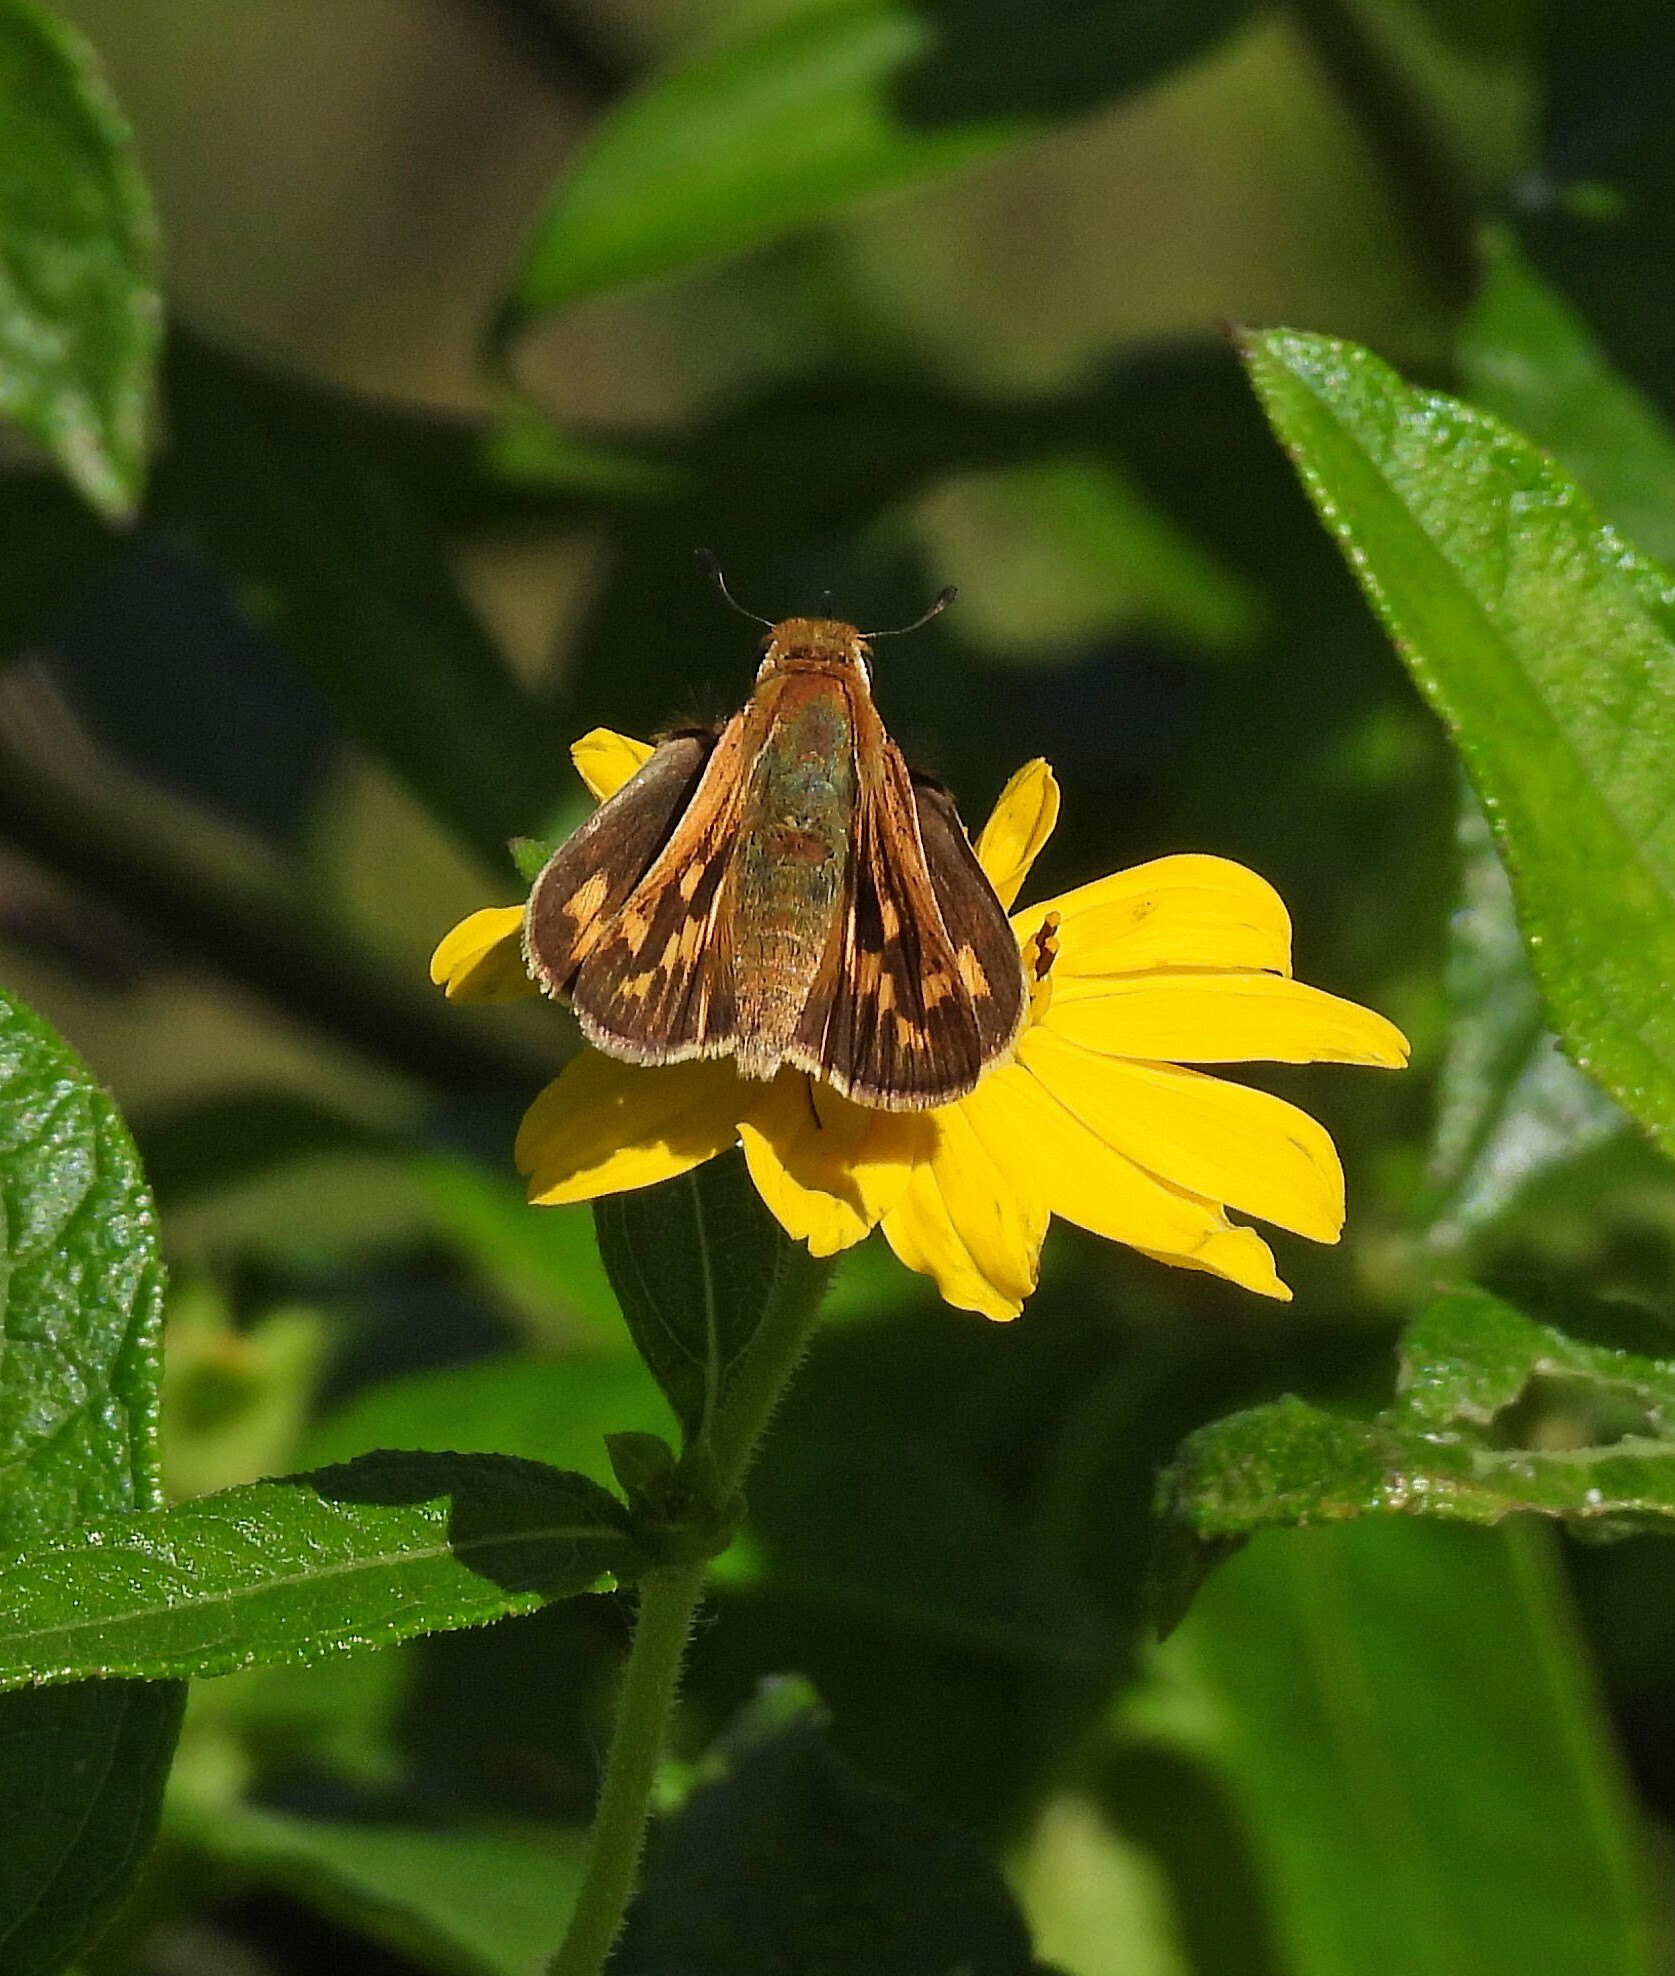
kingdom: Animalia
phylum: Arthropoda
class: Insecta
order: Lepidoptera
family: Hesperiidae
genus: Hylephila
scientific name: Hylephila phyleus
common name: Fiery skipper
